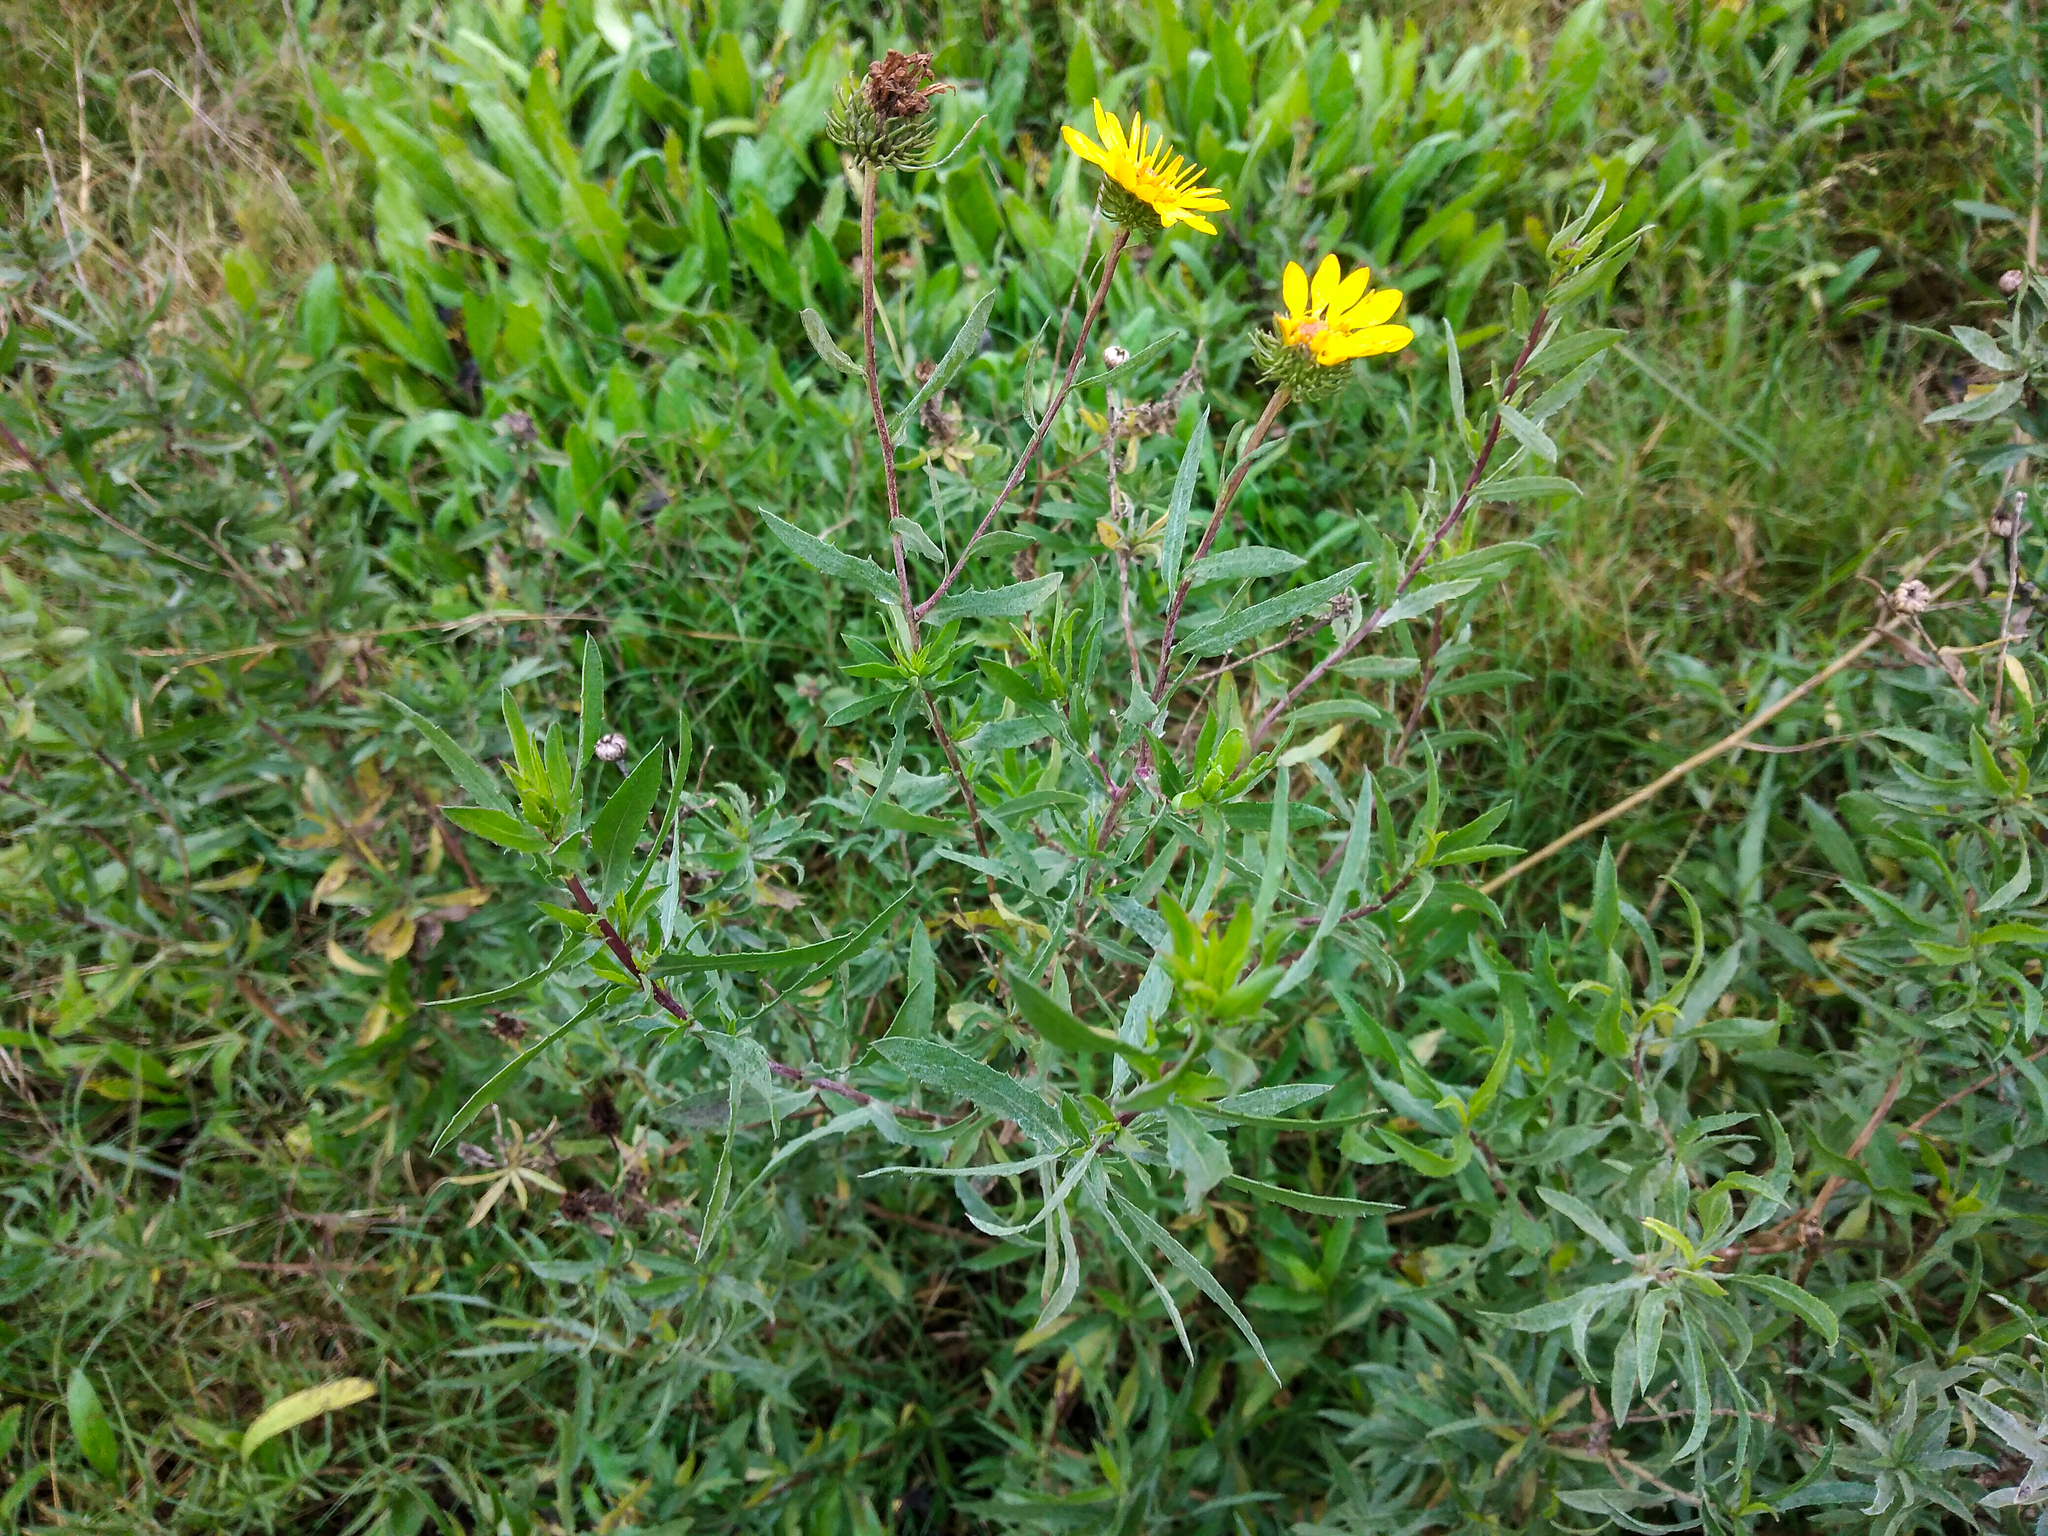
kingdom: Plantae
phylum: Tracheophyta
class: Magnoliopsida
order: Asterales
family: Asteraceae
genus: Grindelia
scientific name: Grindelia pulchella
